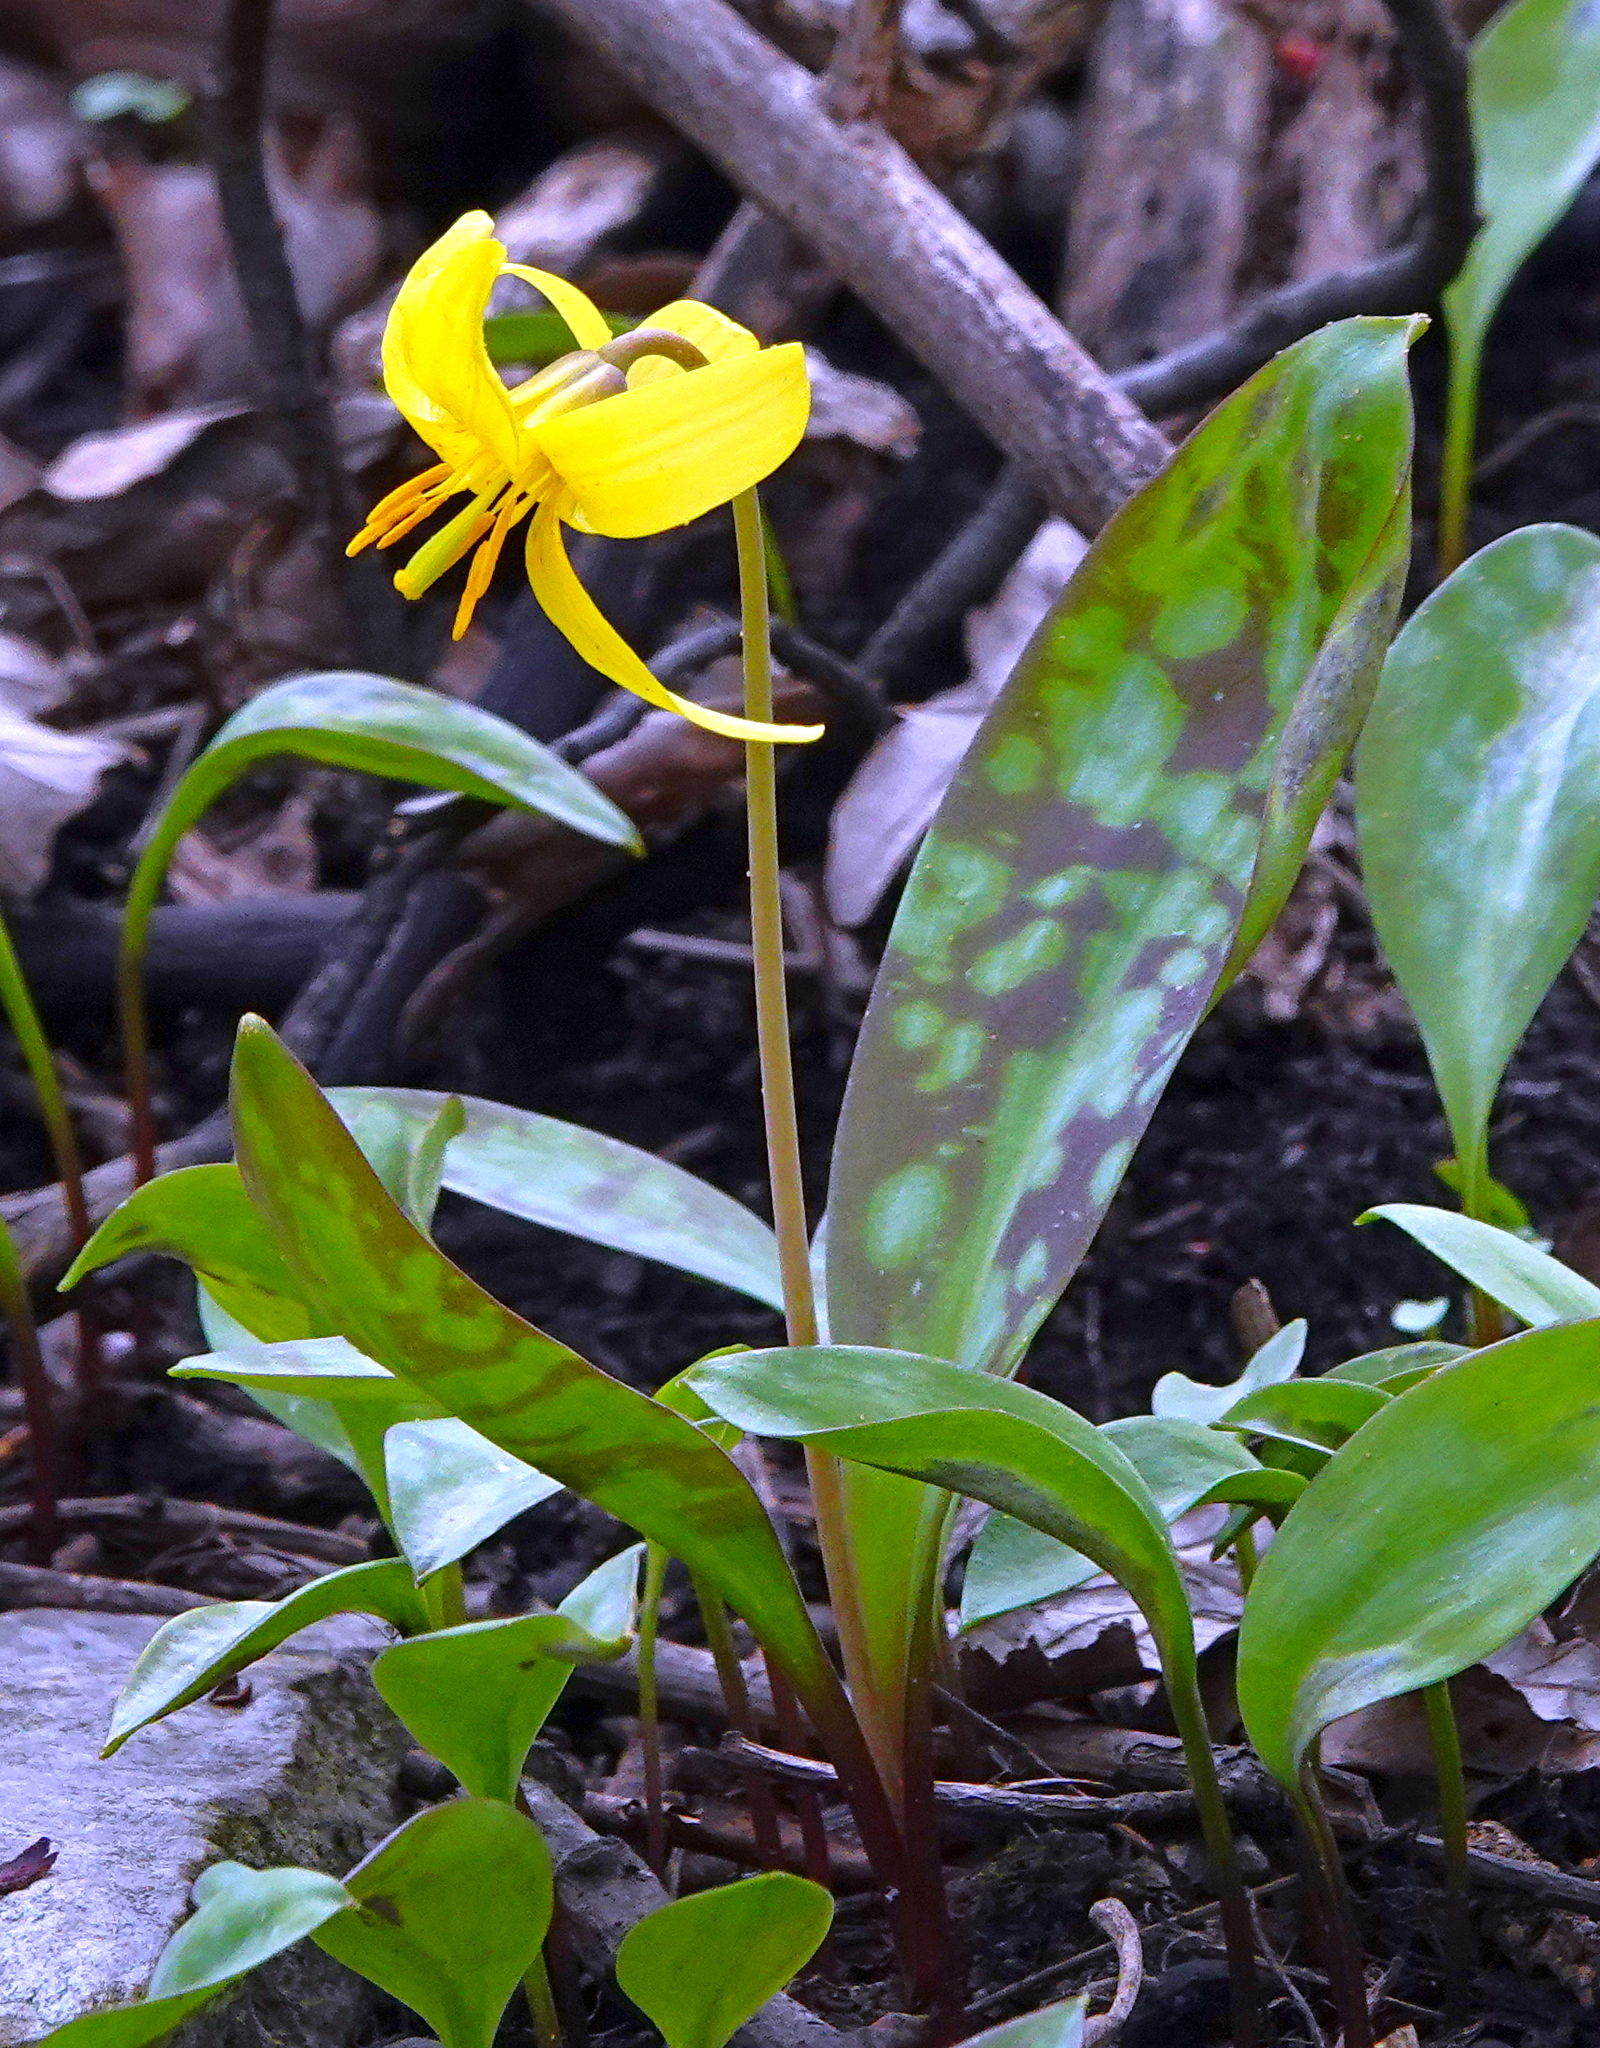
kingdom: Plantae
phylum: Tracheophyta
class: Liliopsida
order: Liliales
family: Liliaceae
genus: Erythronium
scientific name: Erythronium americanum
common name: Yellow adder's-tongue
